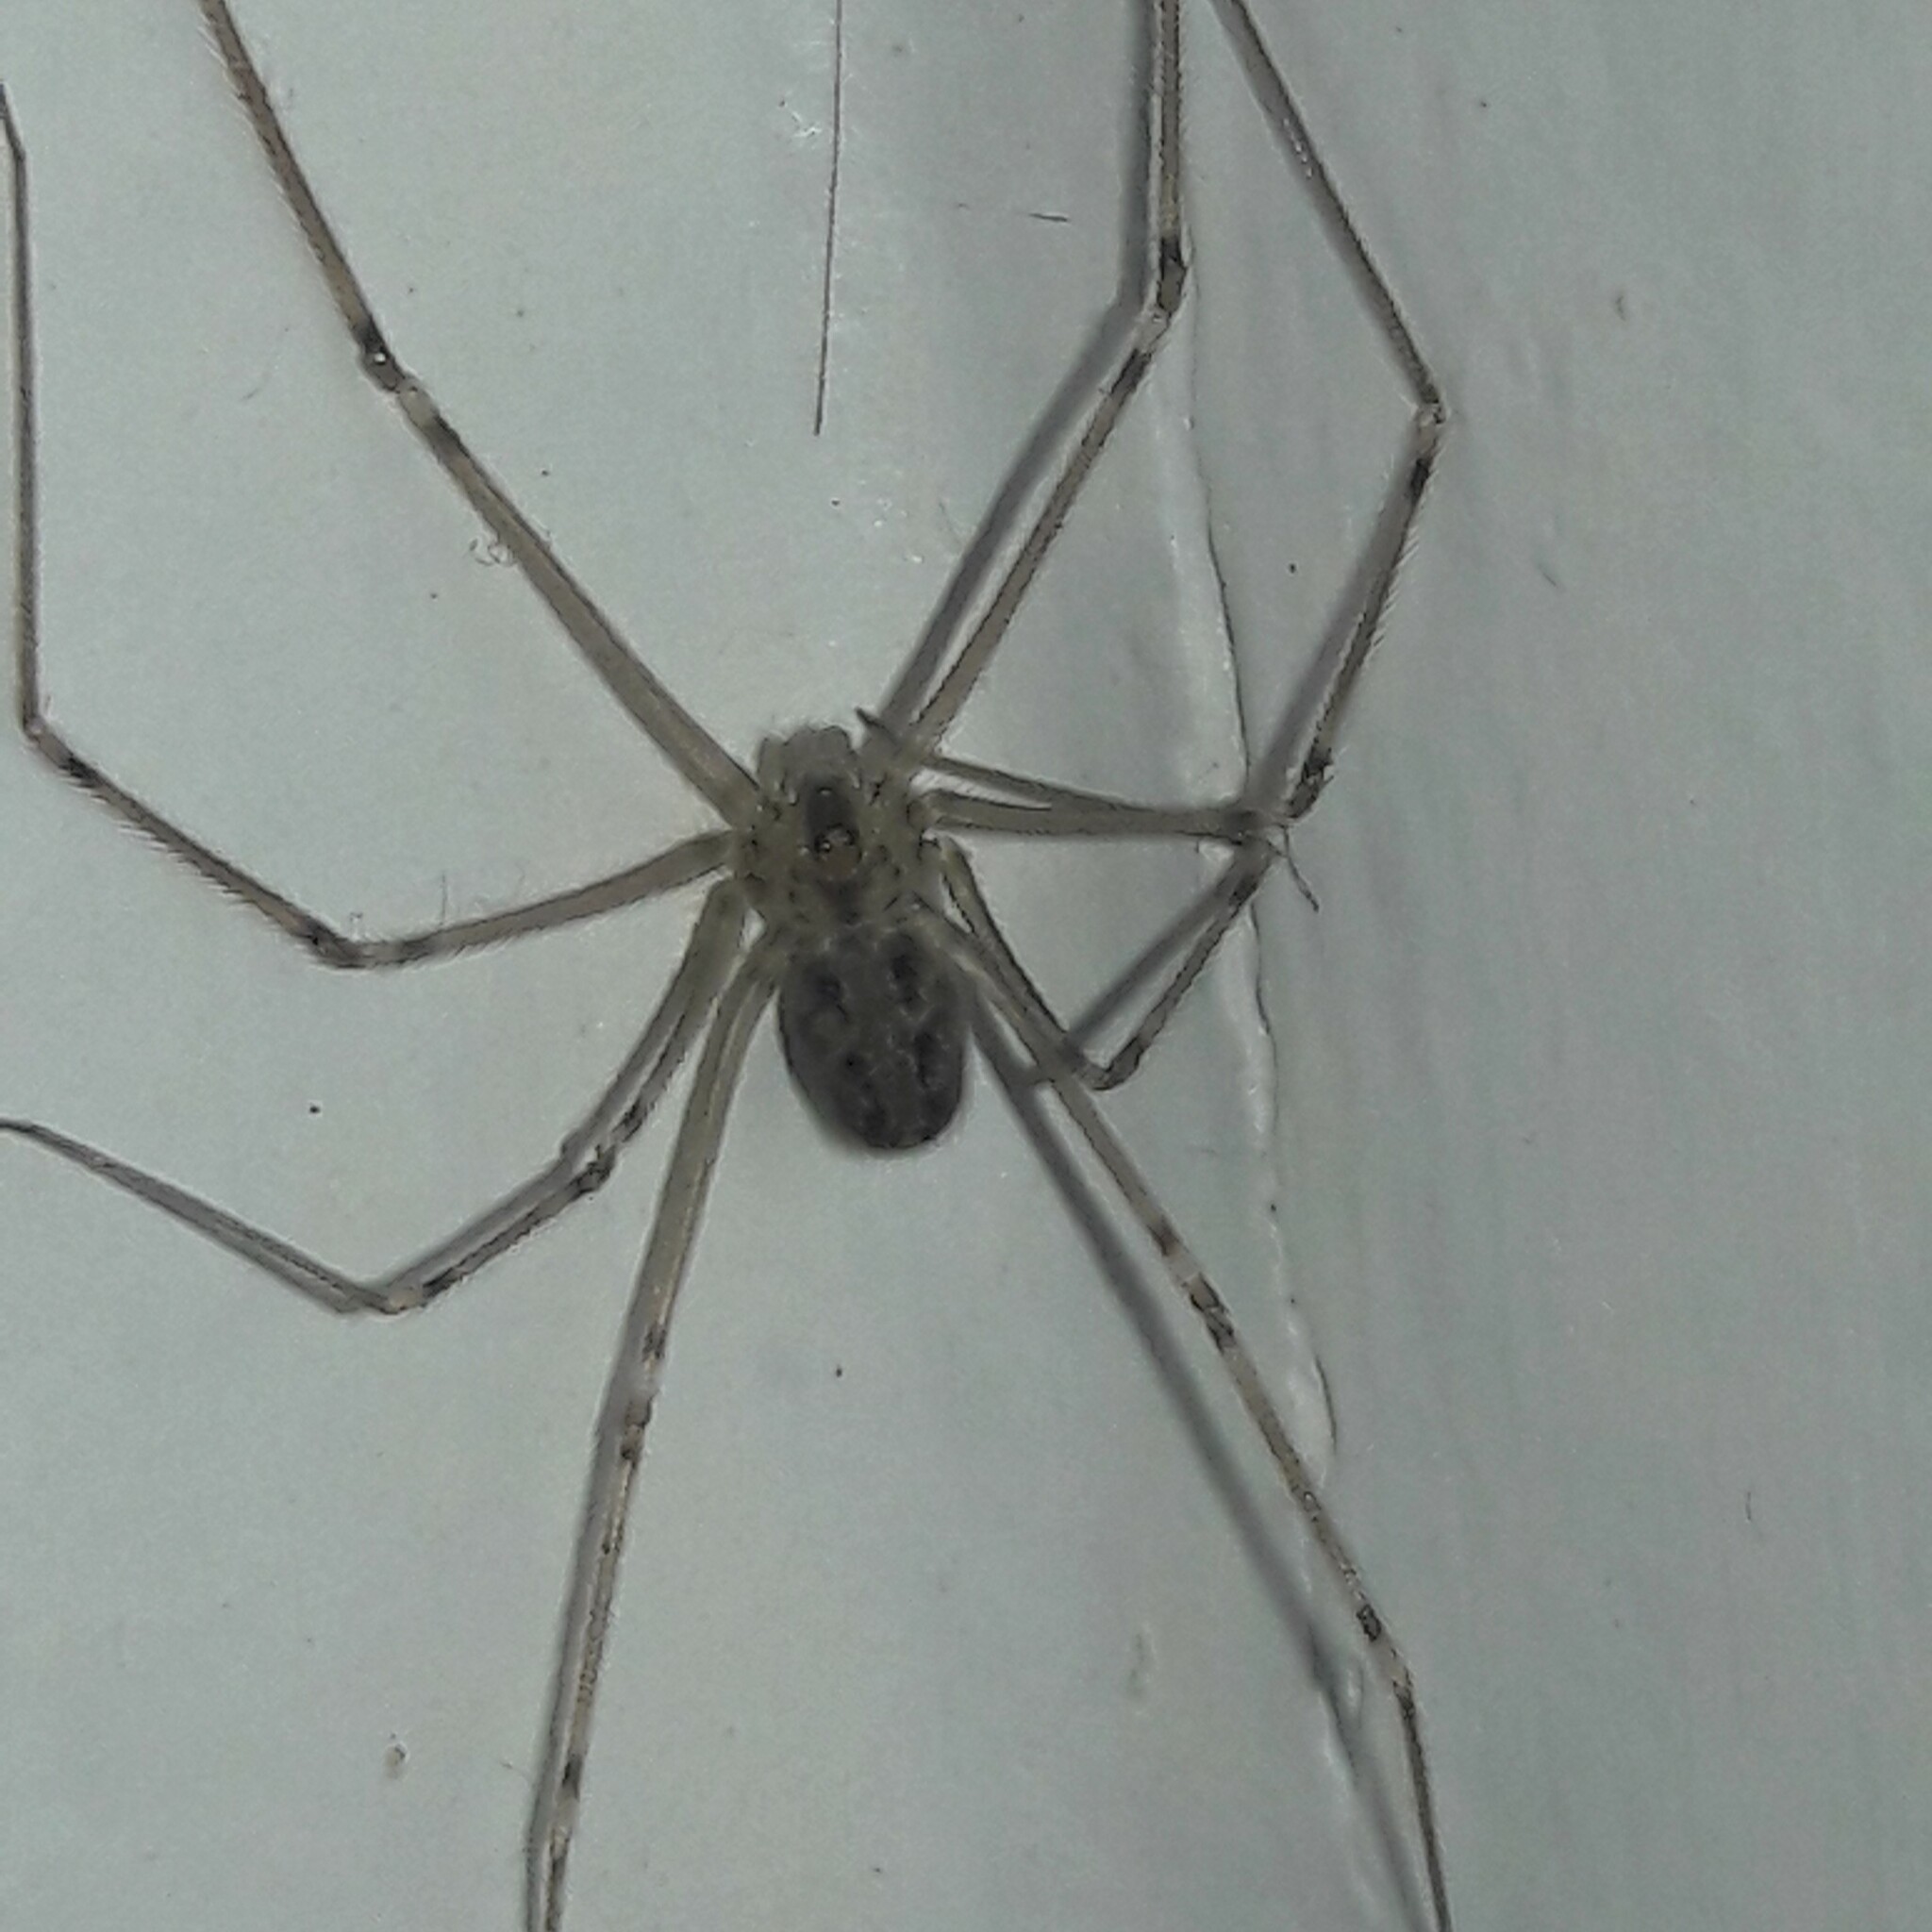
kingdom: Animalia
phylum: Arthropoda
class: Arachnida
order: Araneae
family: Pholcidae
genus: Physocyclus
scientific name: Physocyclus globosus
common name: Cellar spiders
